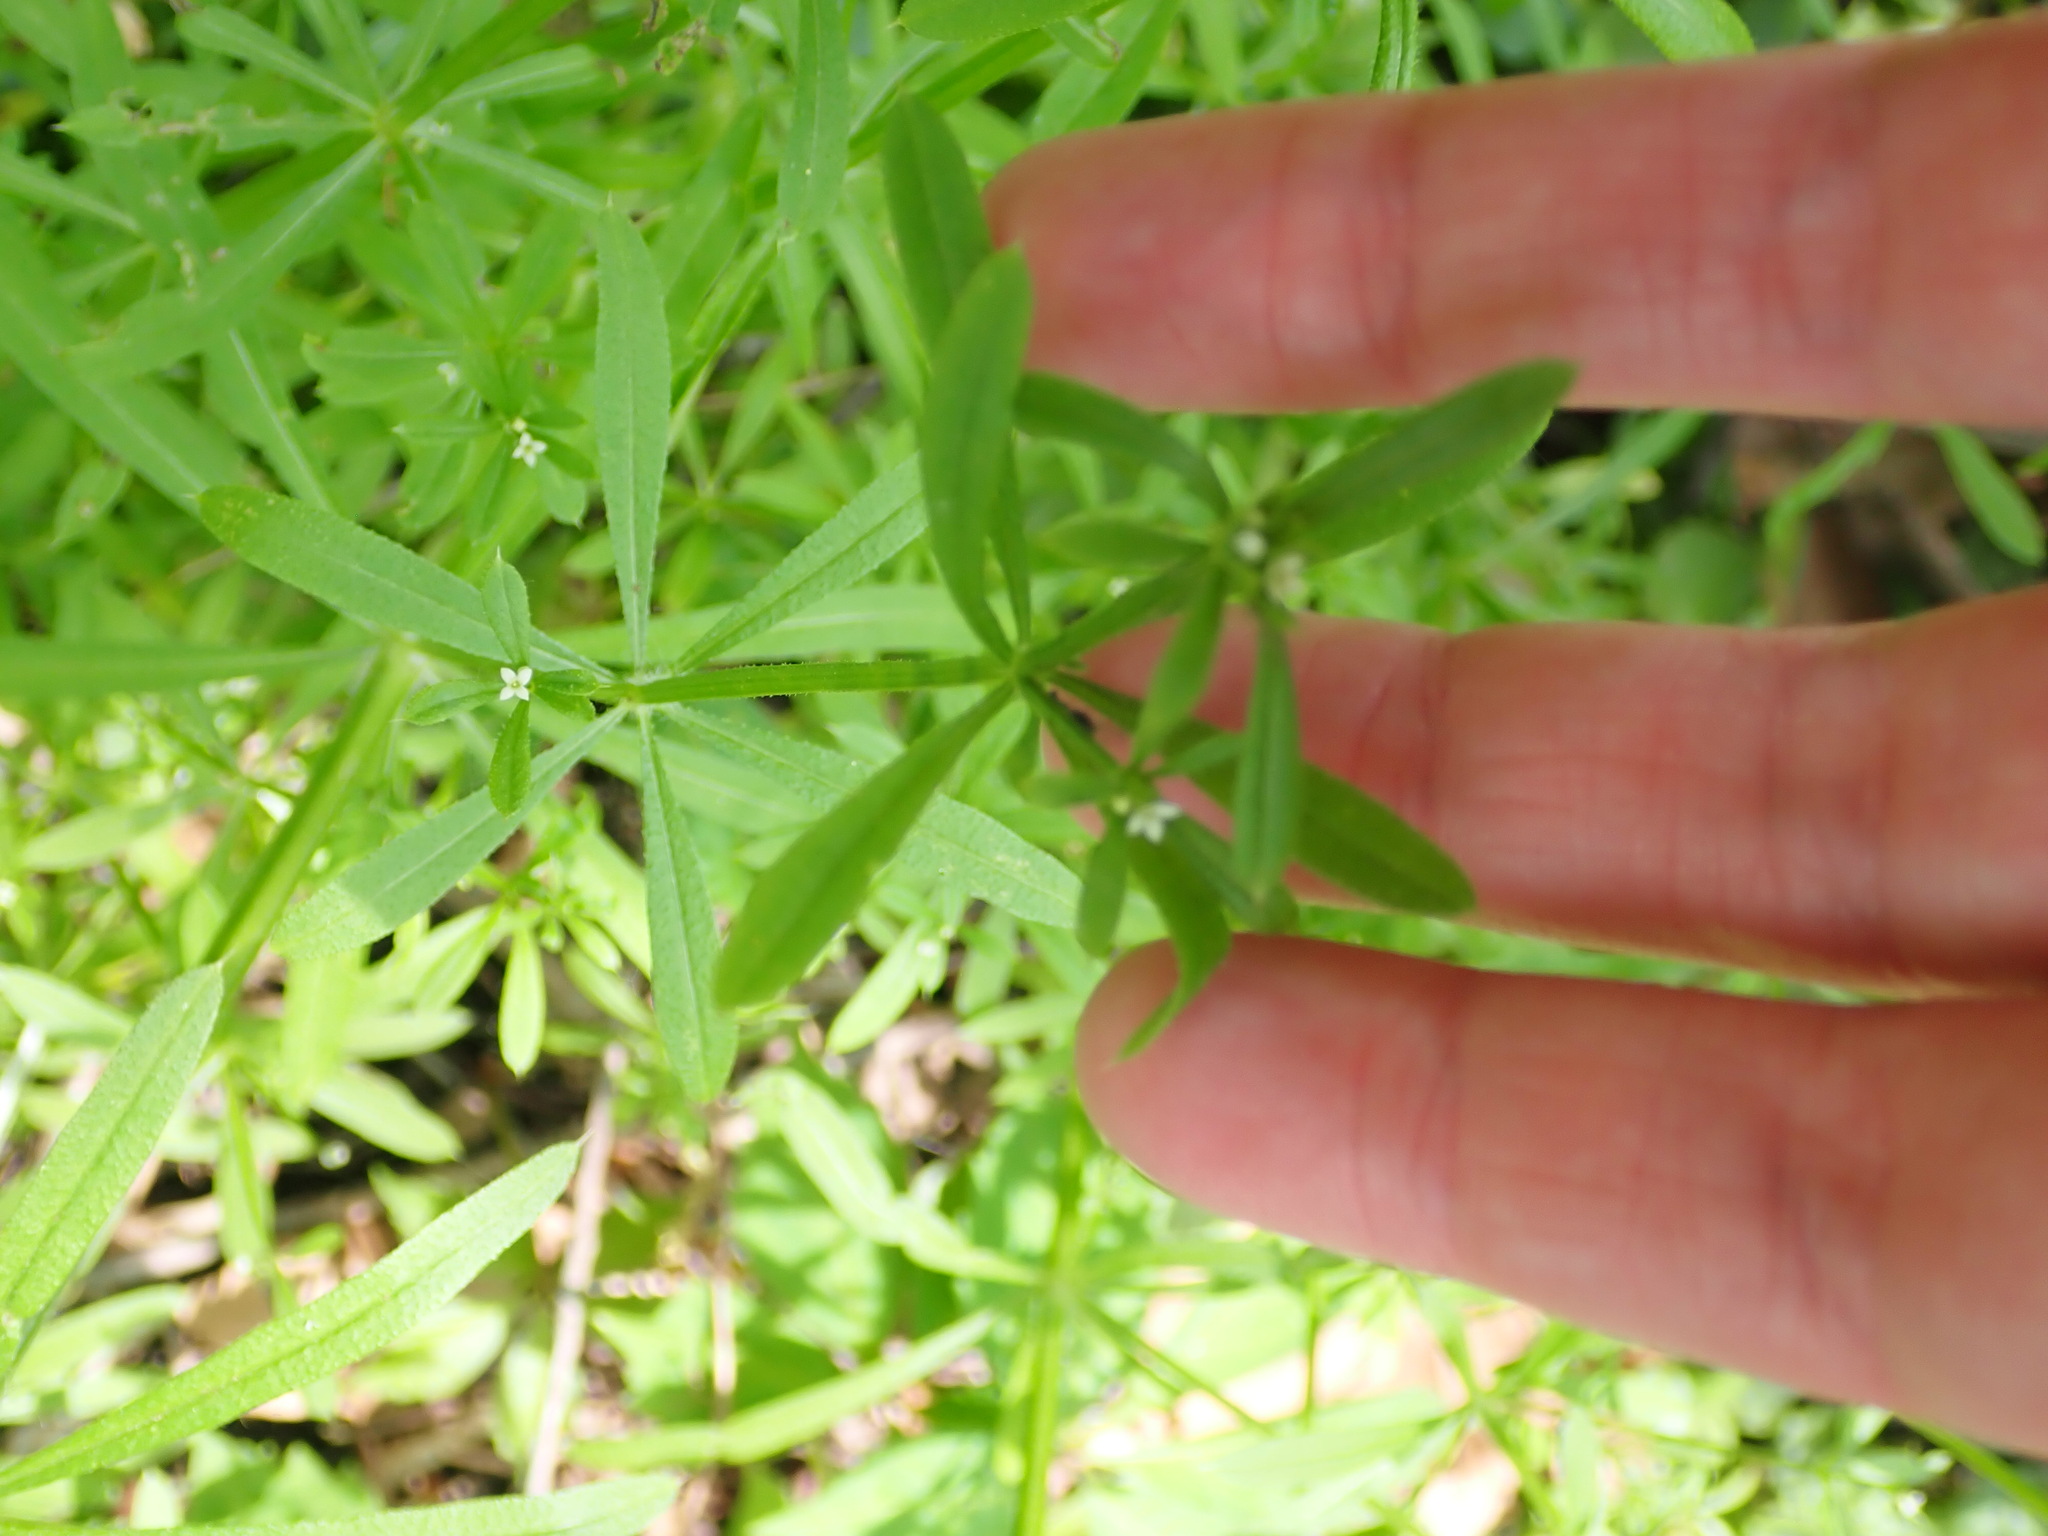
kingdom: Plantae
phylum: Tracheophyta
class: Magnoliopsida
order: Gentianales
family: Rubiaceae
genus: Galium
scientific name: Galium aparine
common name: Cleavers
